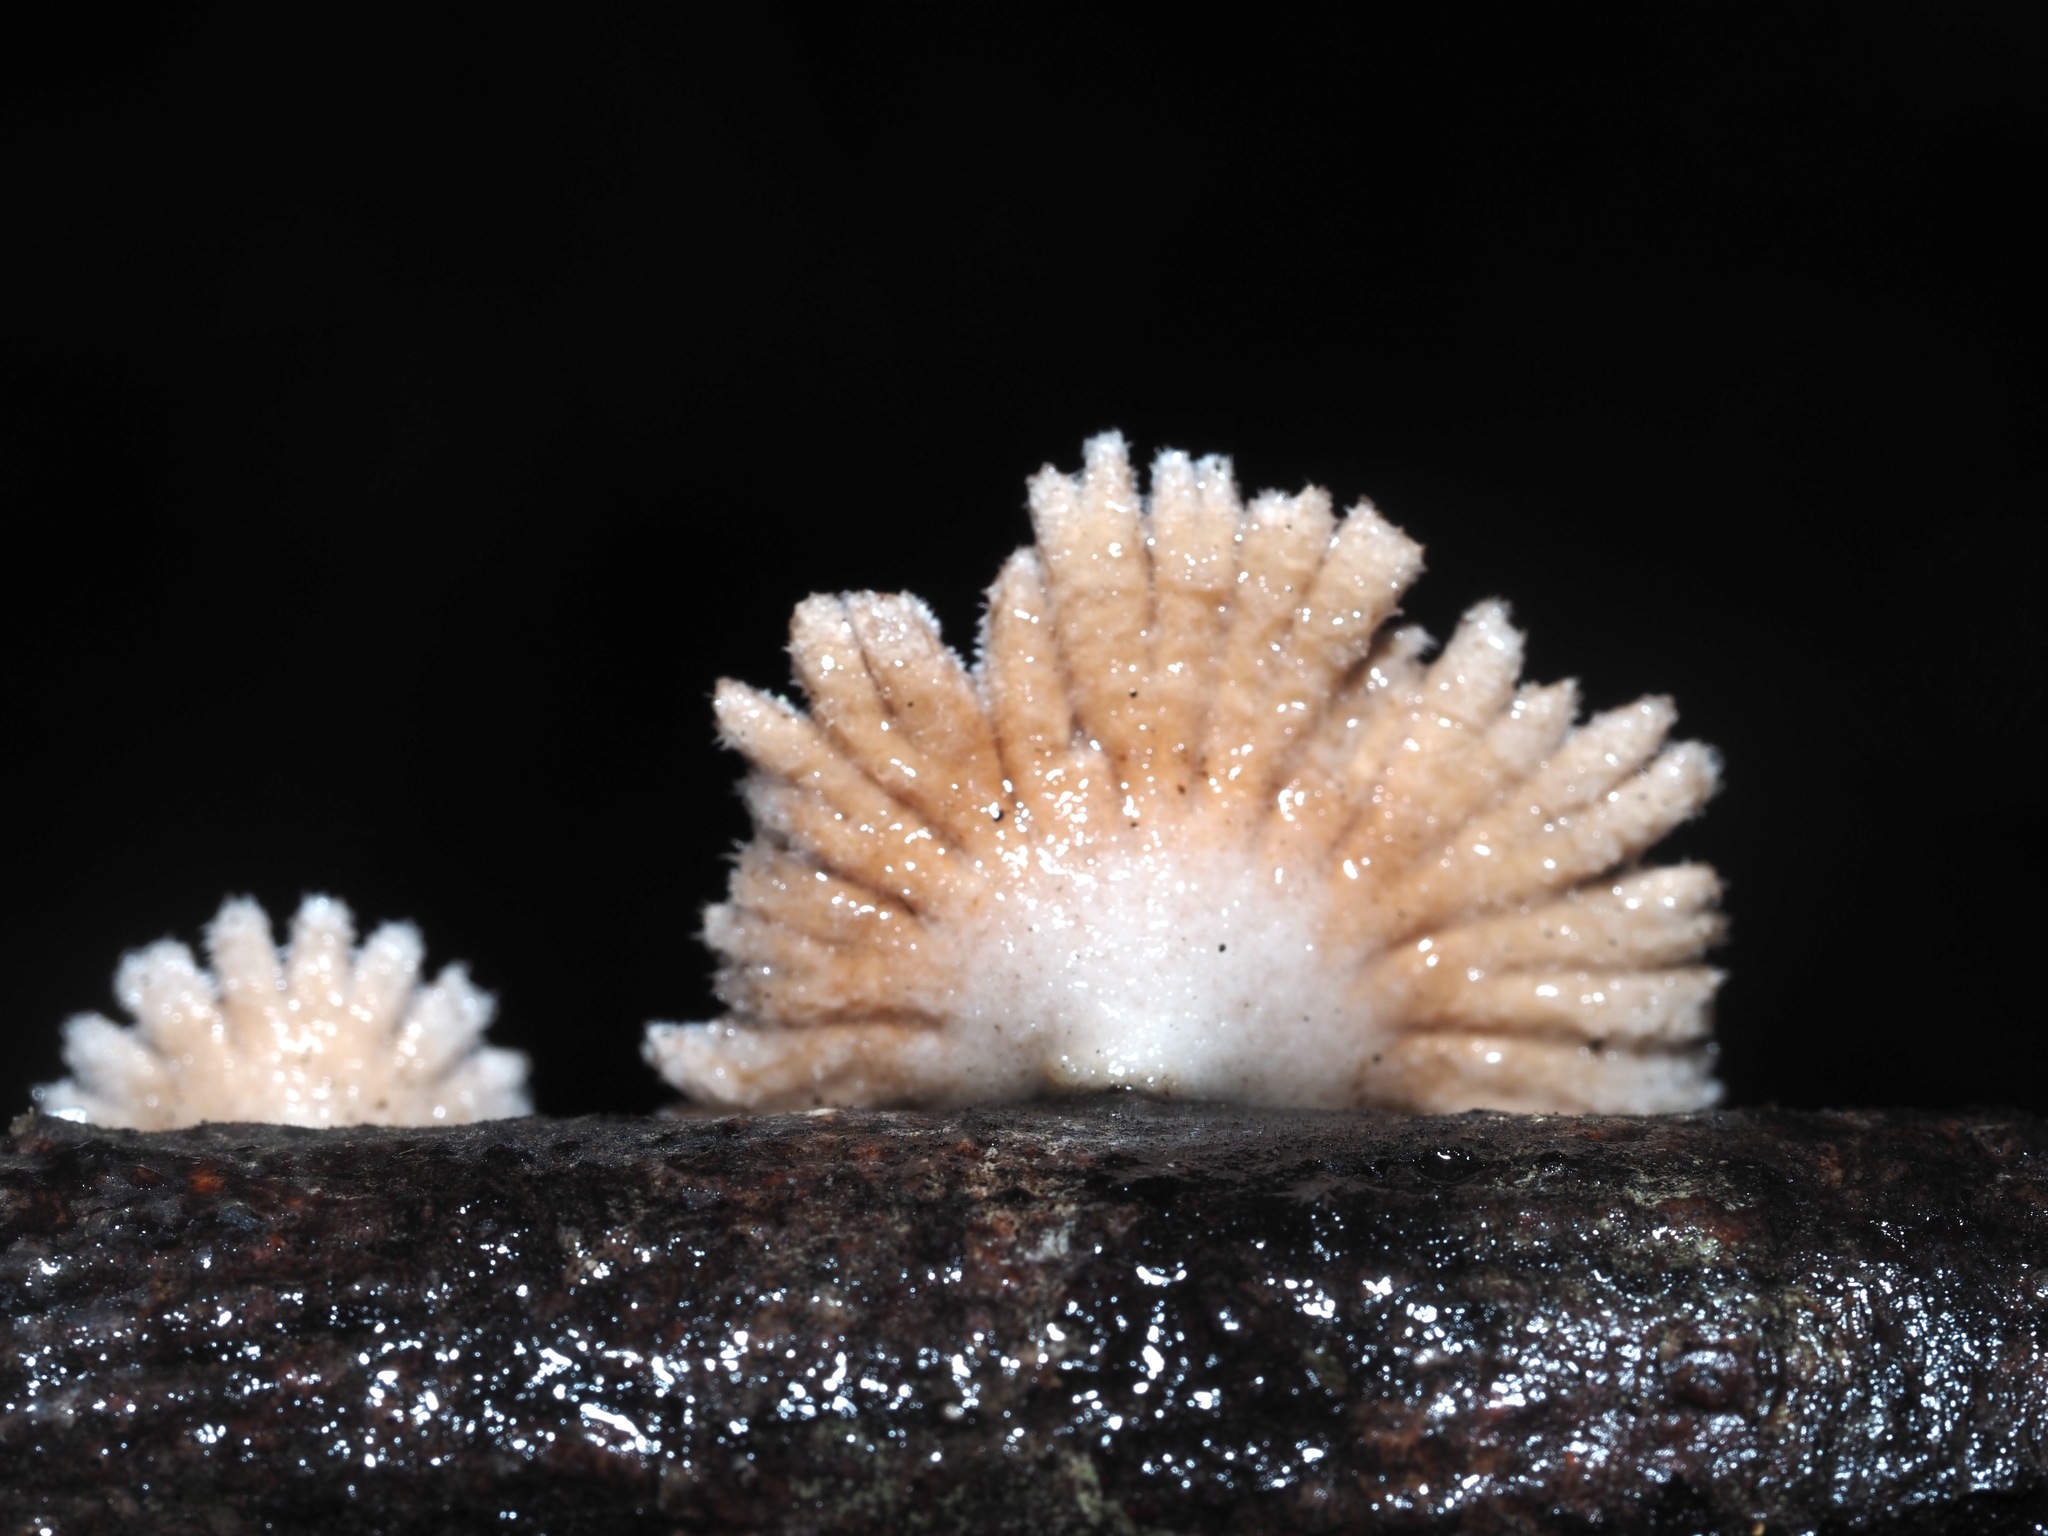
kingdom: Fungi
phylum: Basidiomycota
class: Agaricomycetes
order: Agaricales
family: Schizophyllaceae
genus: Schizophyllum
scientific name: Schizophyllum commune
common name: Common porecrust
